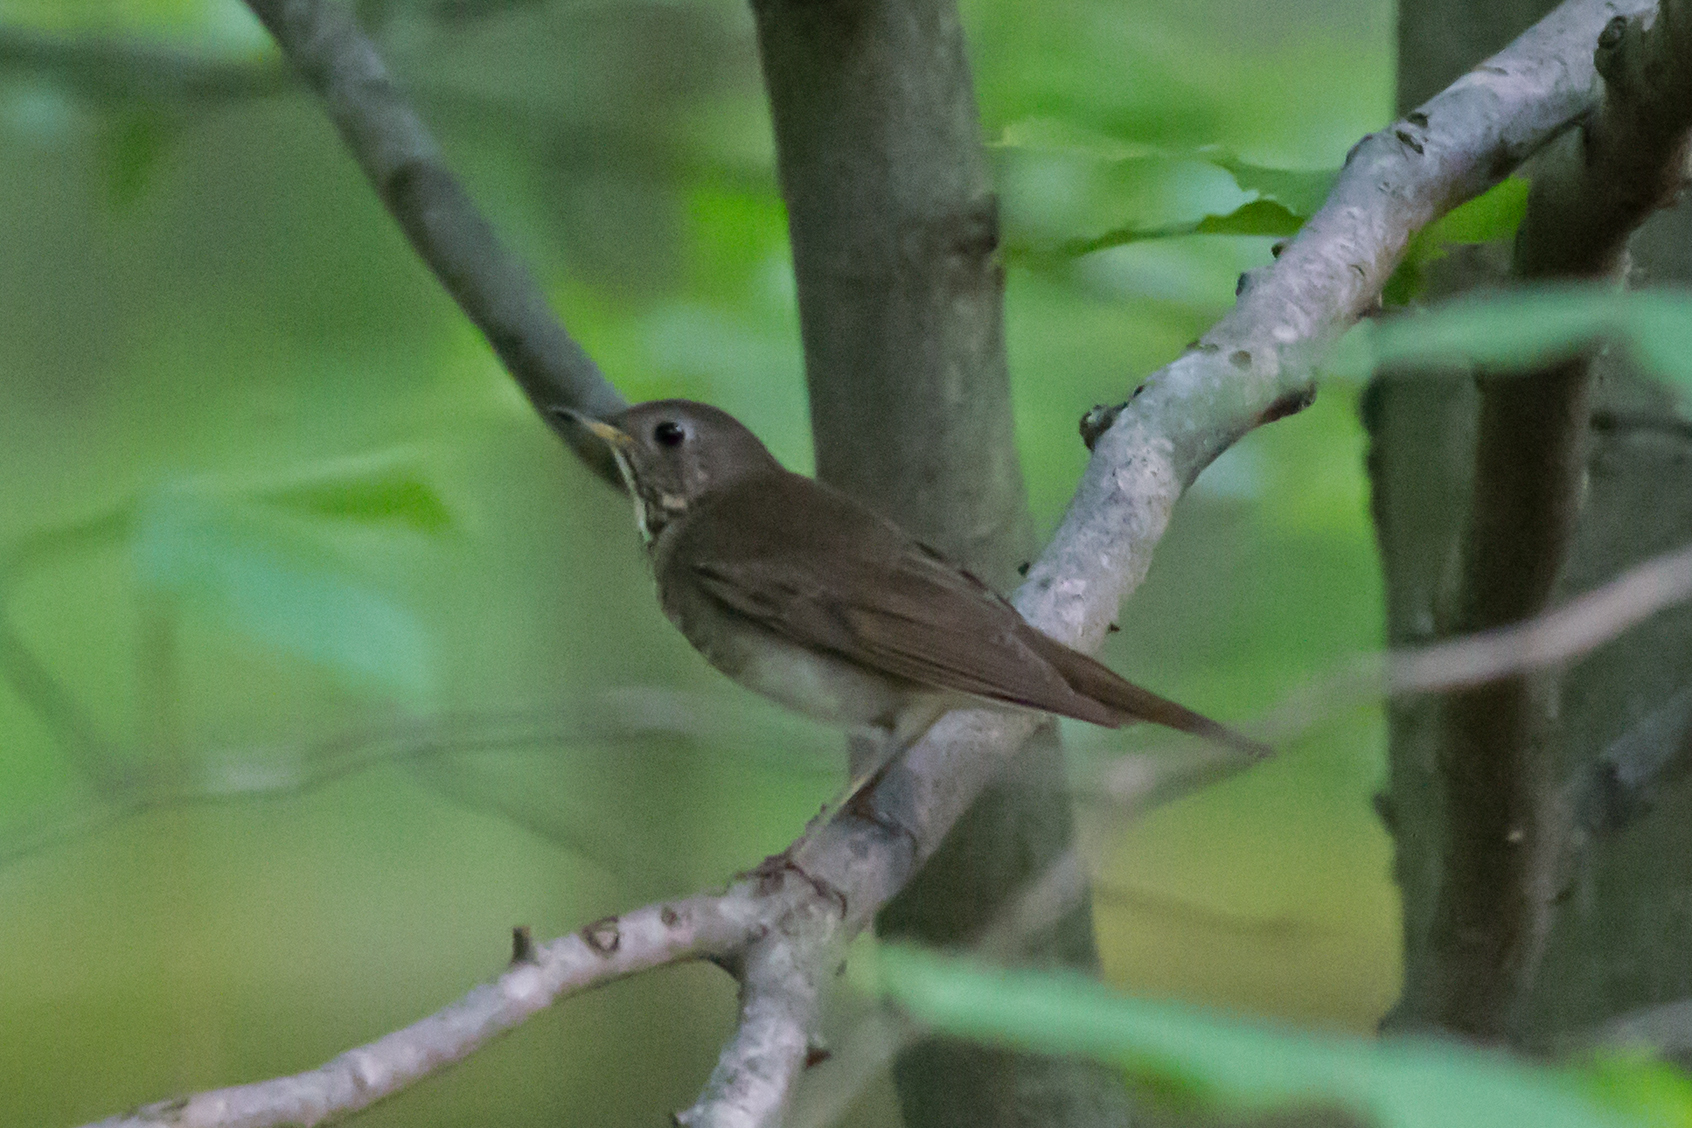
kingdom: Animalia
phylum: Chordata
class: Aves
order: Passeriformes
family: Turdidae
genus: Catharus
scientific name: Catharus minimus
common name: Grey-cheeked thrush
